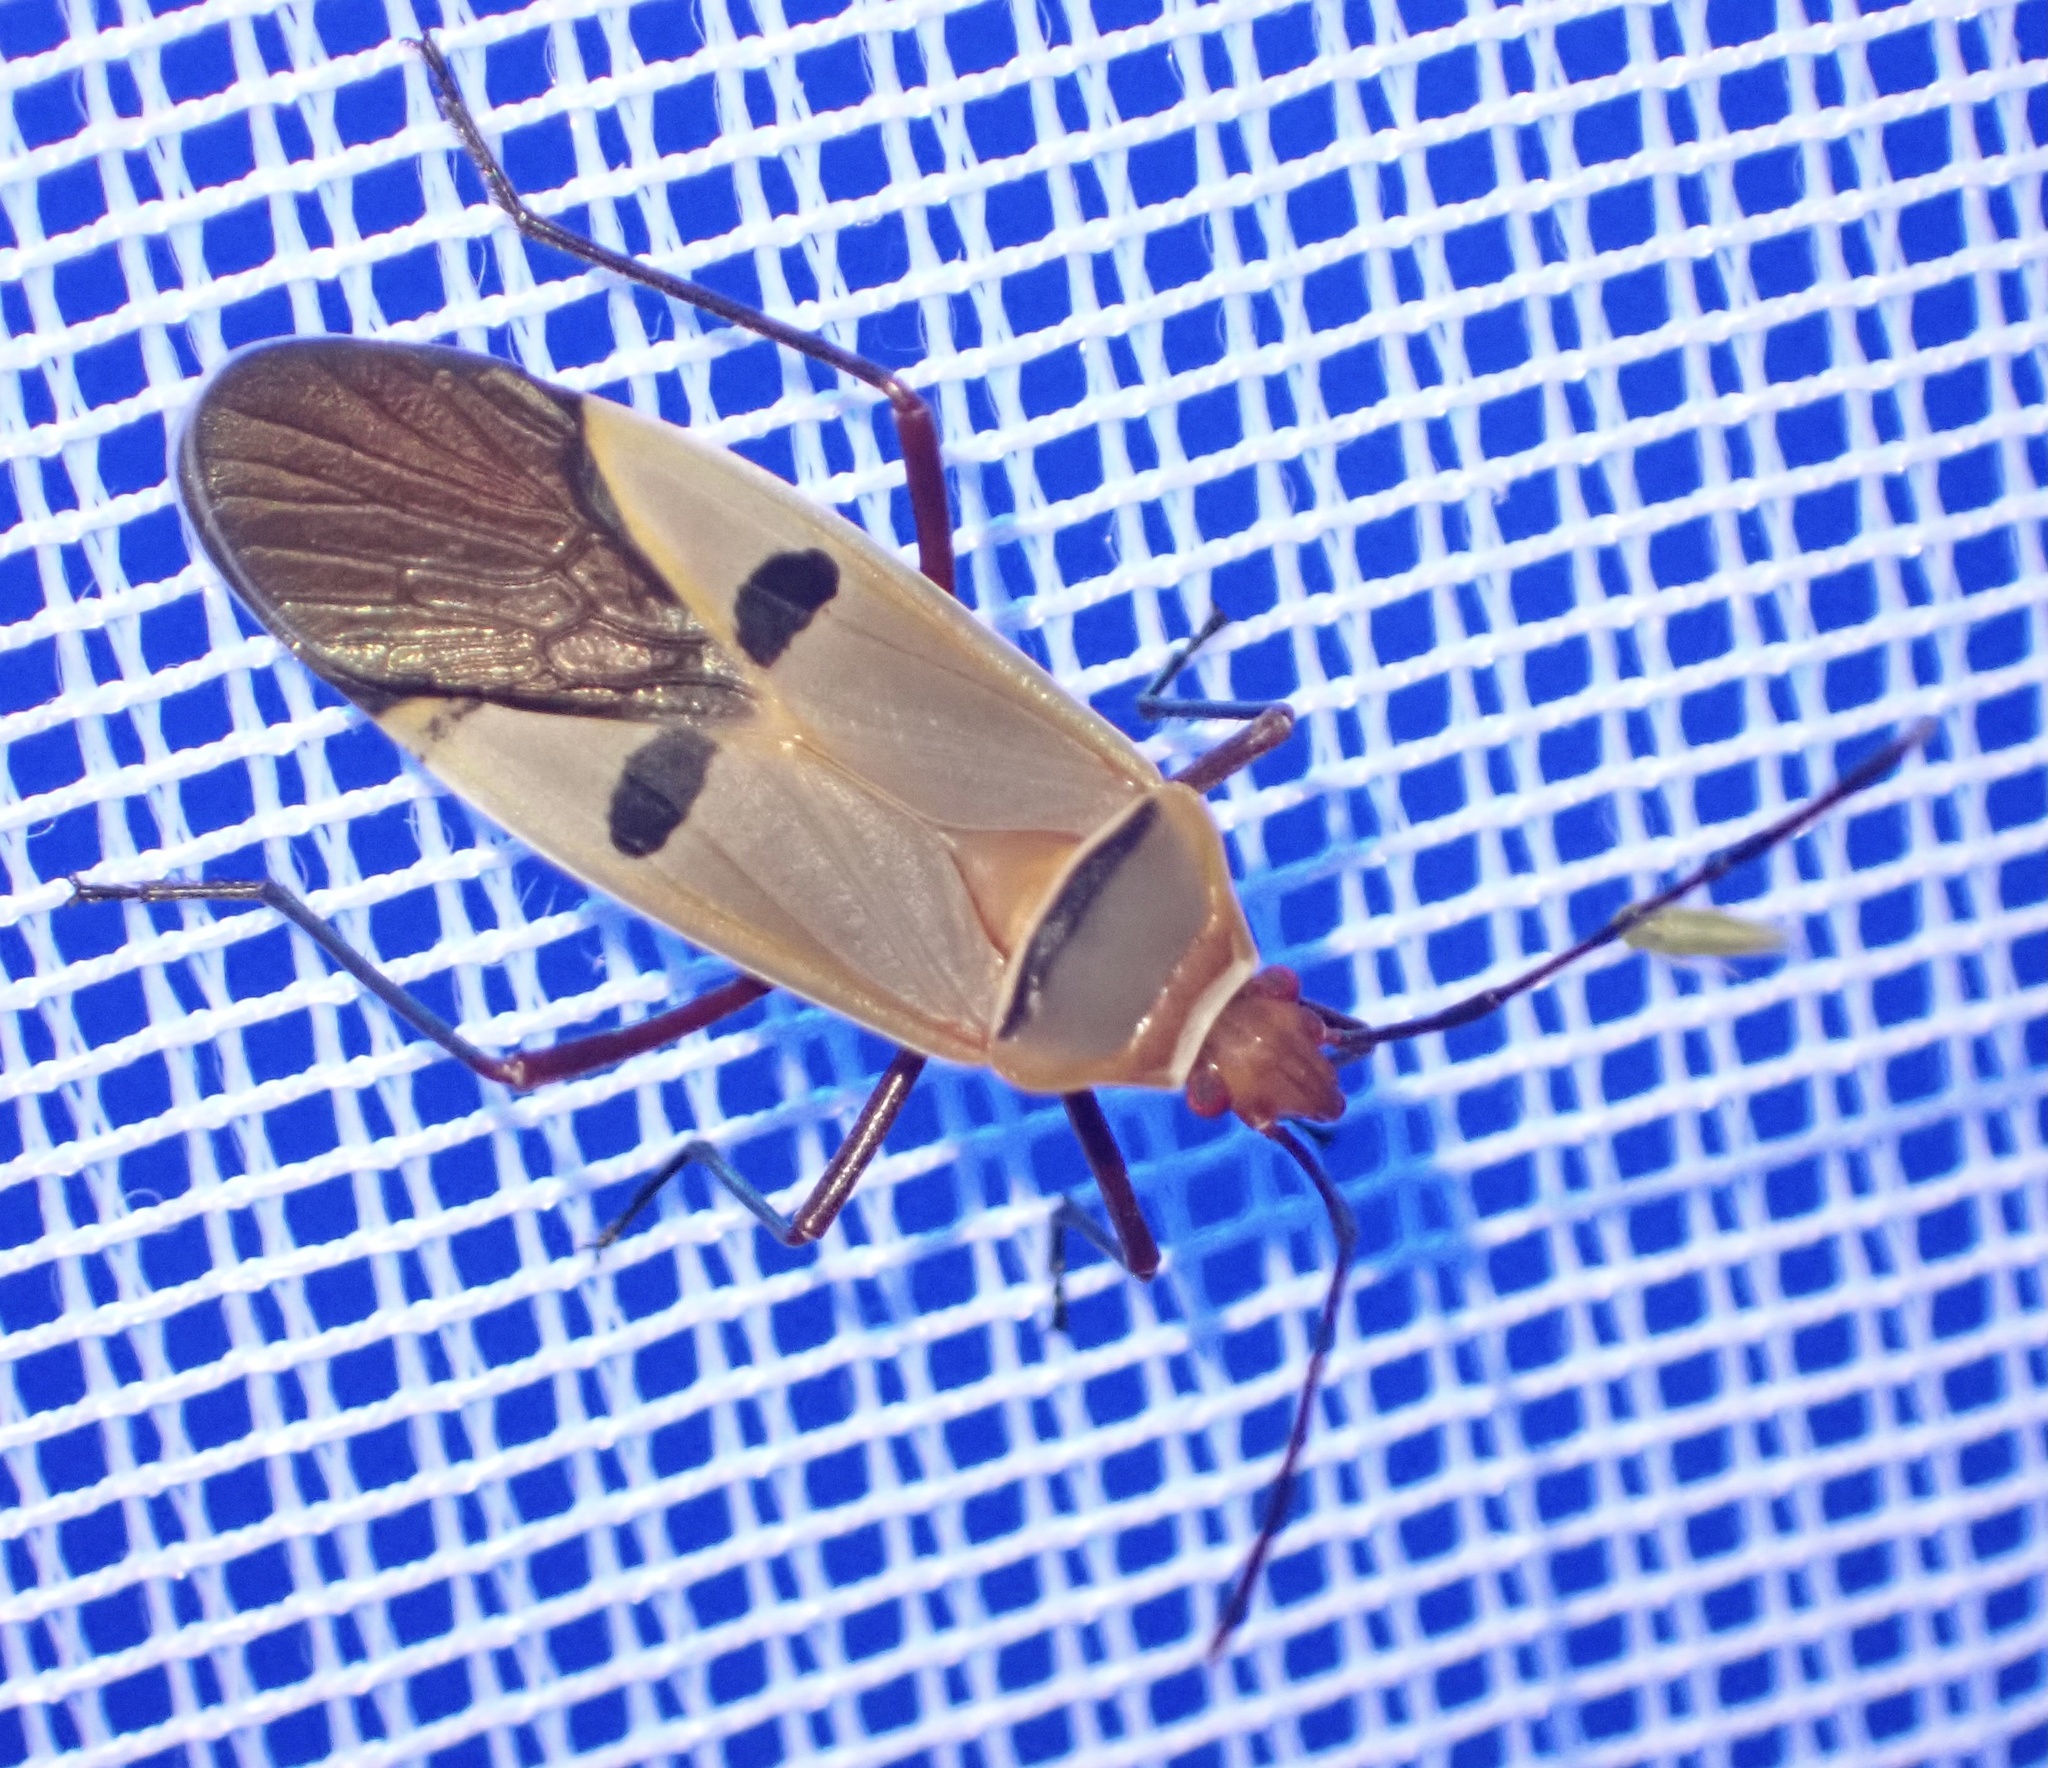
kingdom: Animalia
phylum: Arthropoda
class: Insecta
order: Hemiptera
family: Pyrrhocoridae
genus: Dysdercus
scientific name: Dysdercus superstitiosus
